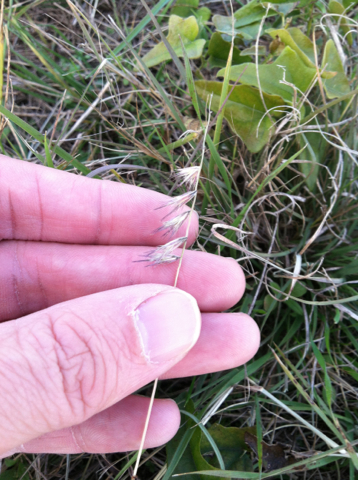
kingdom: Plantae
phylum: Tracheophyta
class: Liliopsida
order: Poales
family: Poaceae
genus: Bouteloua
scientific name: Bouteloua rigidiseta
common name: Texas grama
